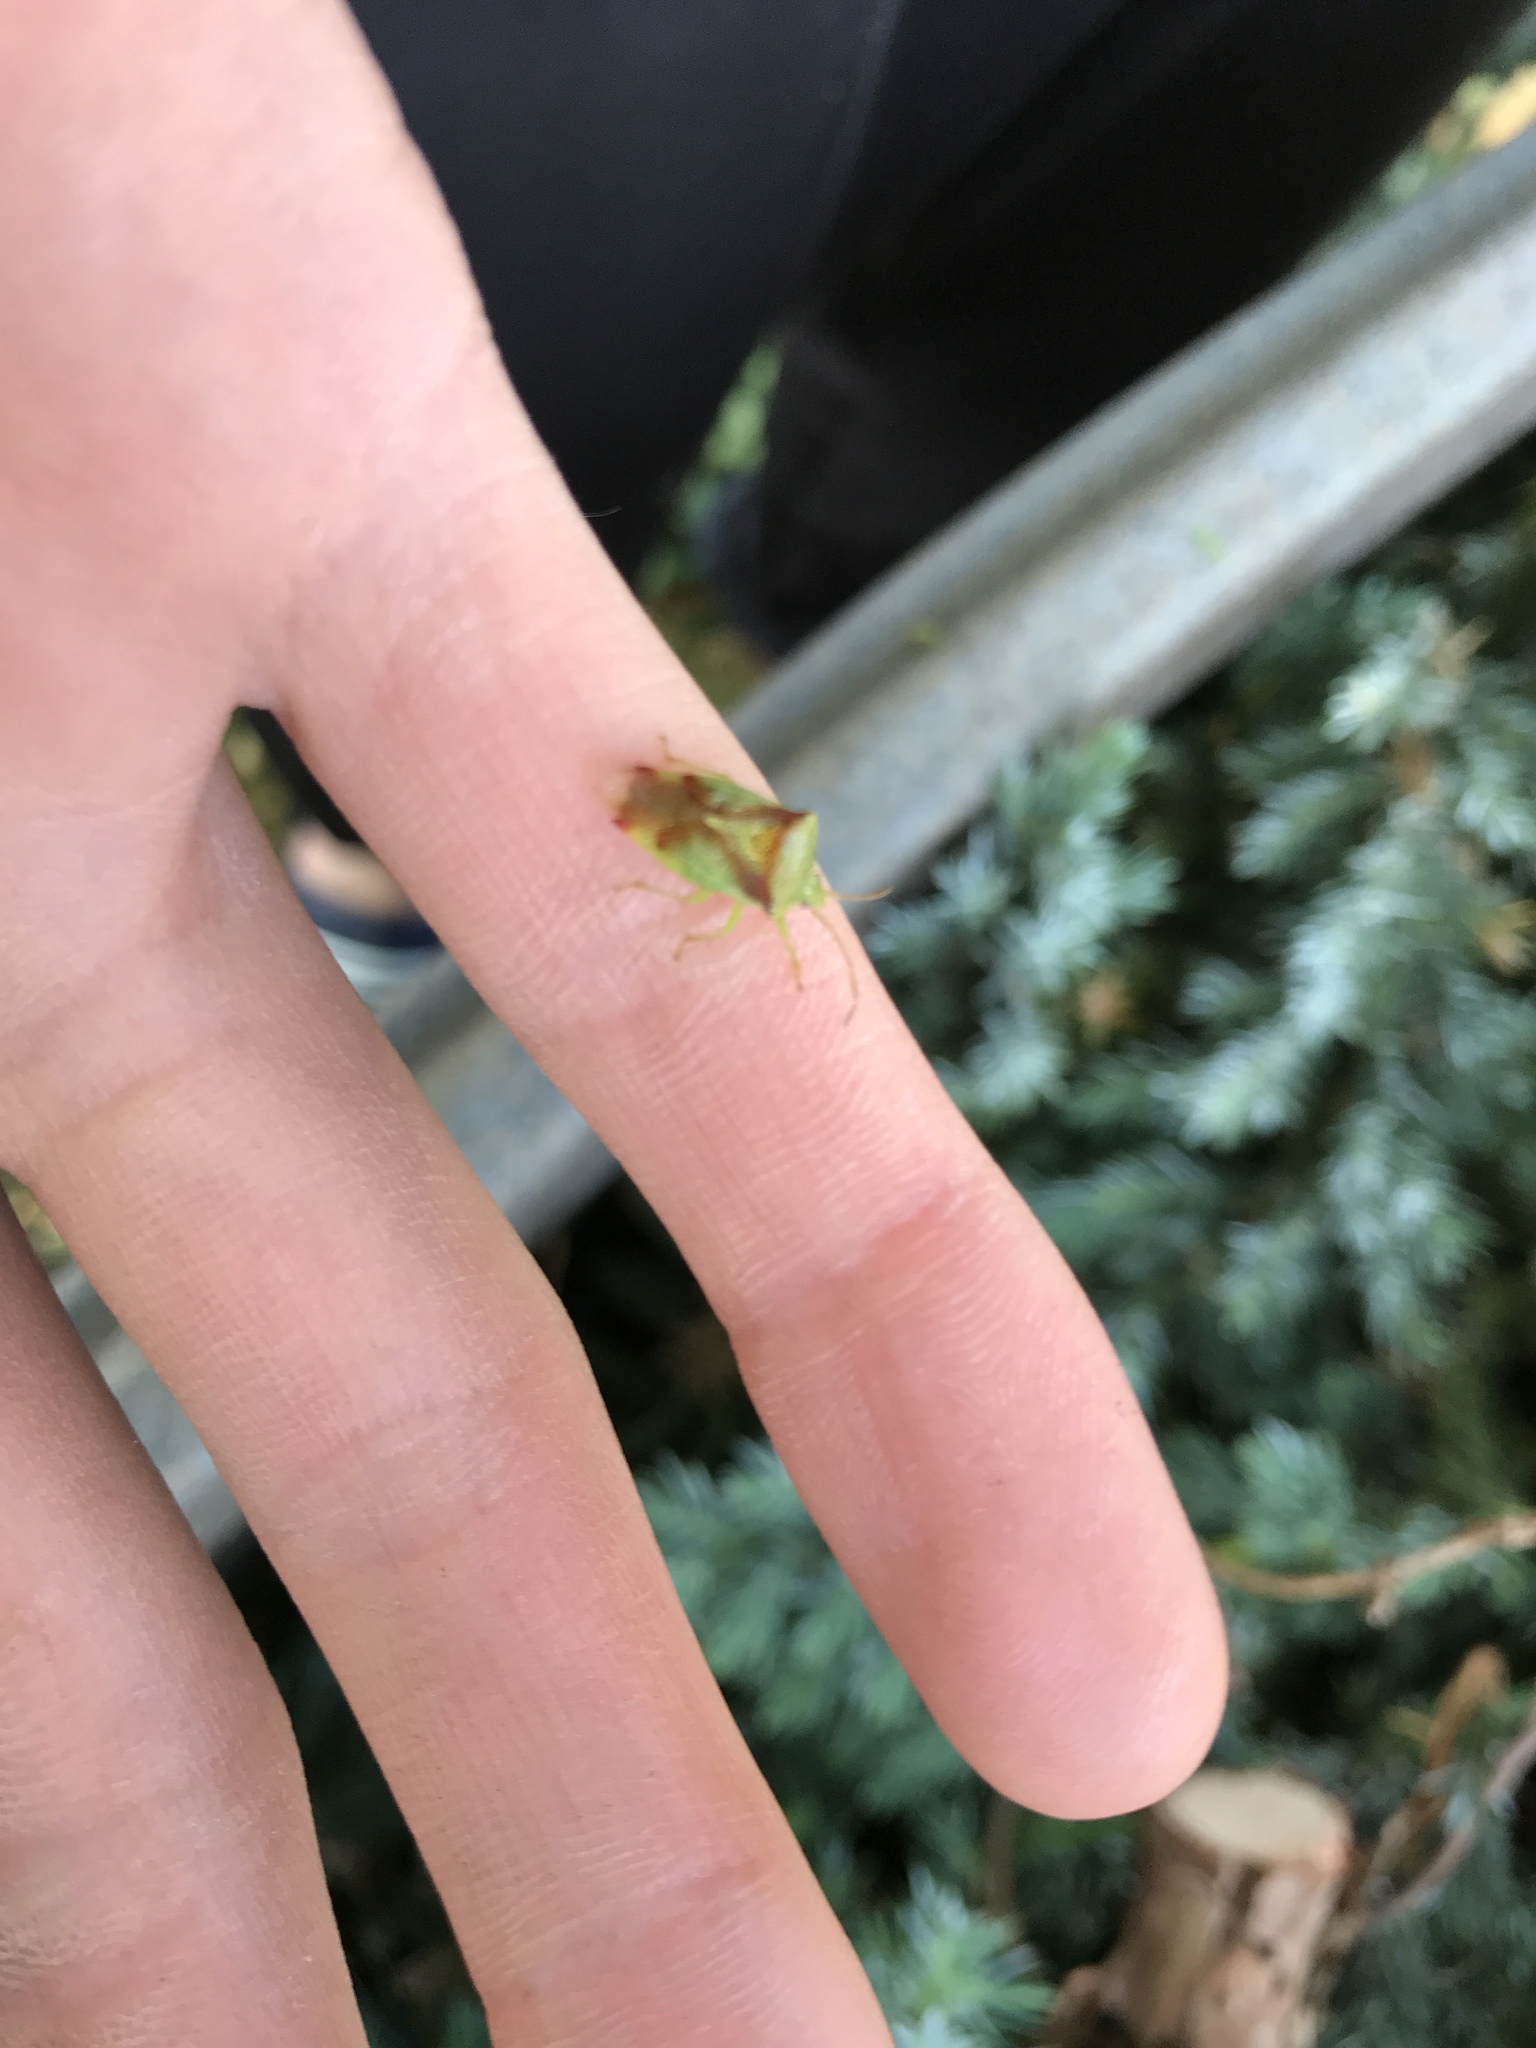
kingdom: Animalia
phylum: Arthropoda
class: Insecta
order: Hemiptera
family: Acanthosomatidae
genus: Elasmostethus
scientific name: Elasmostethus cruciatus
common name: Red-cross shield bug
